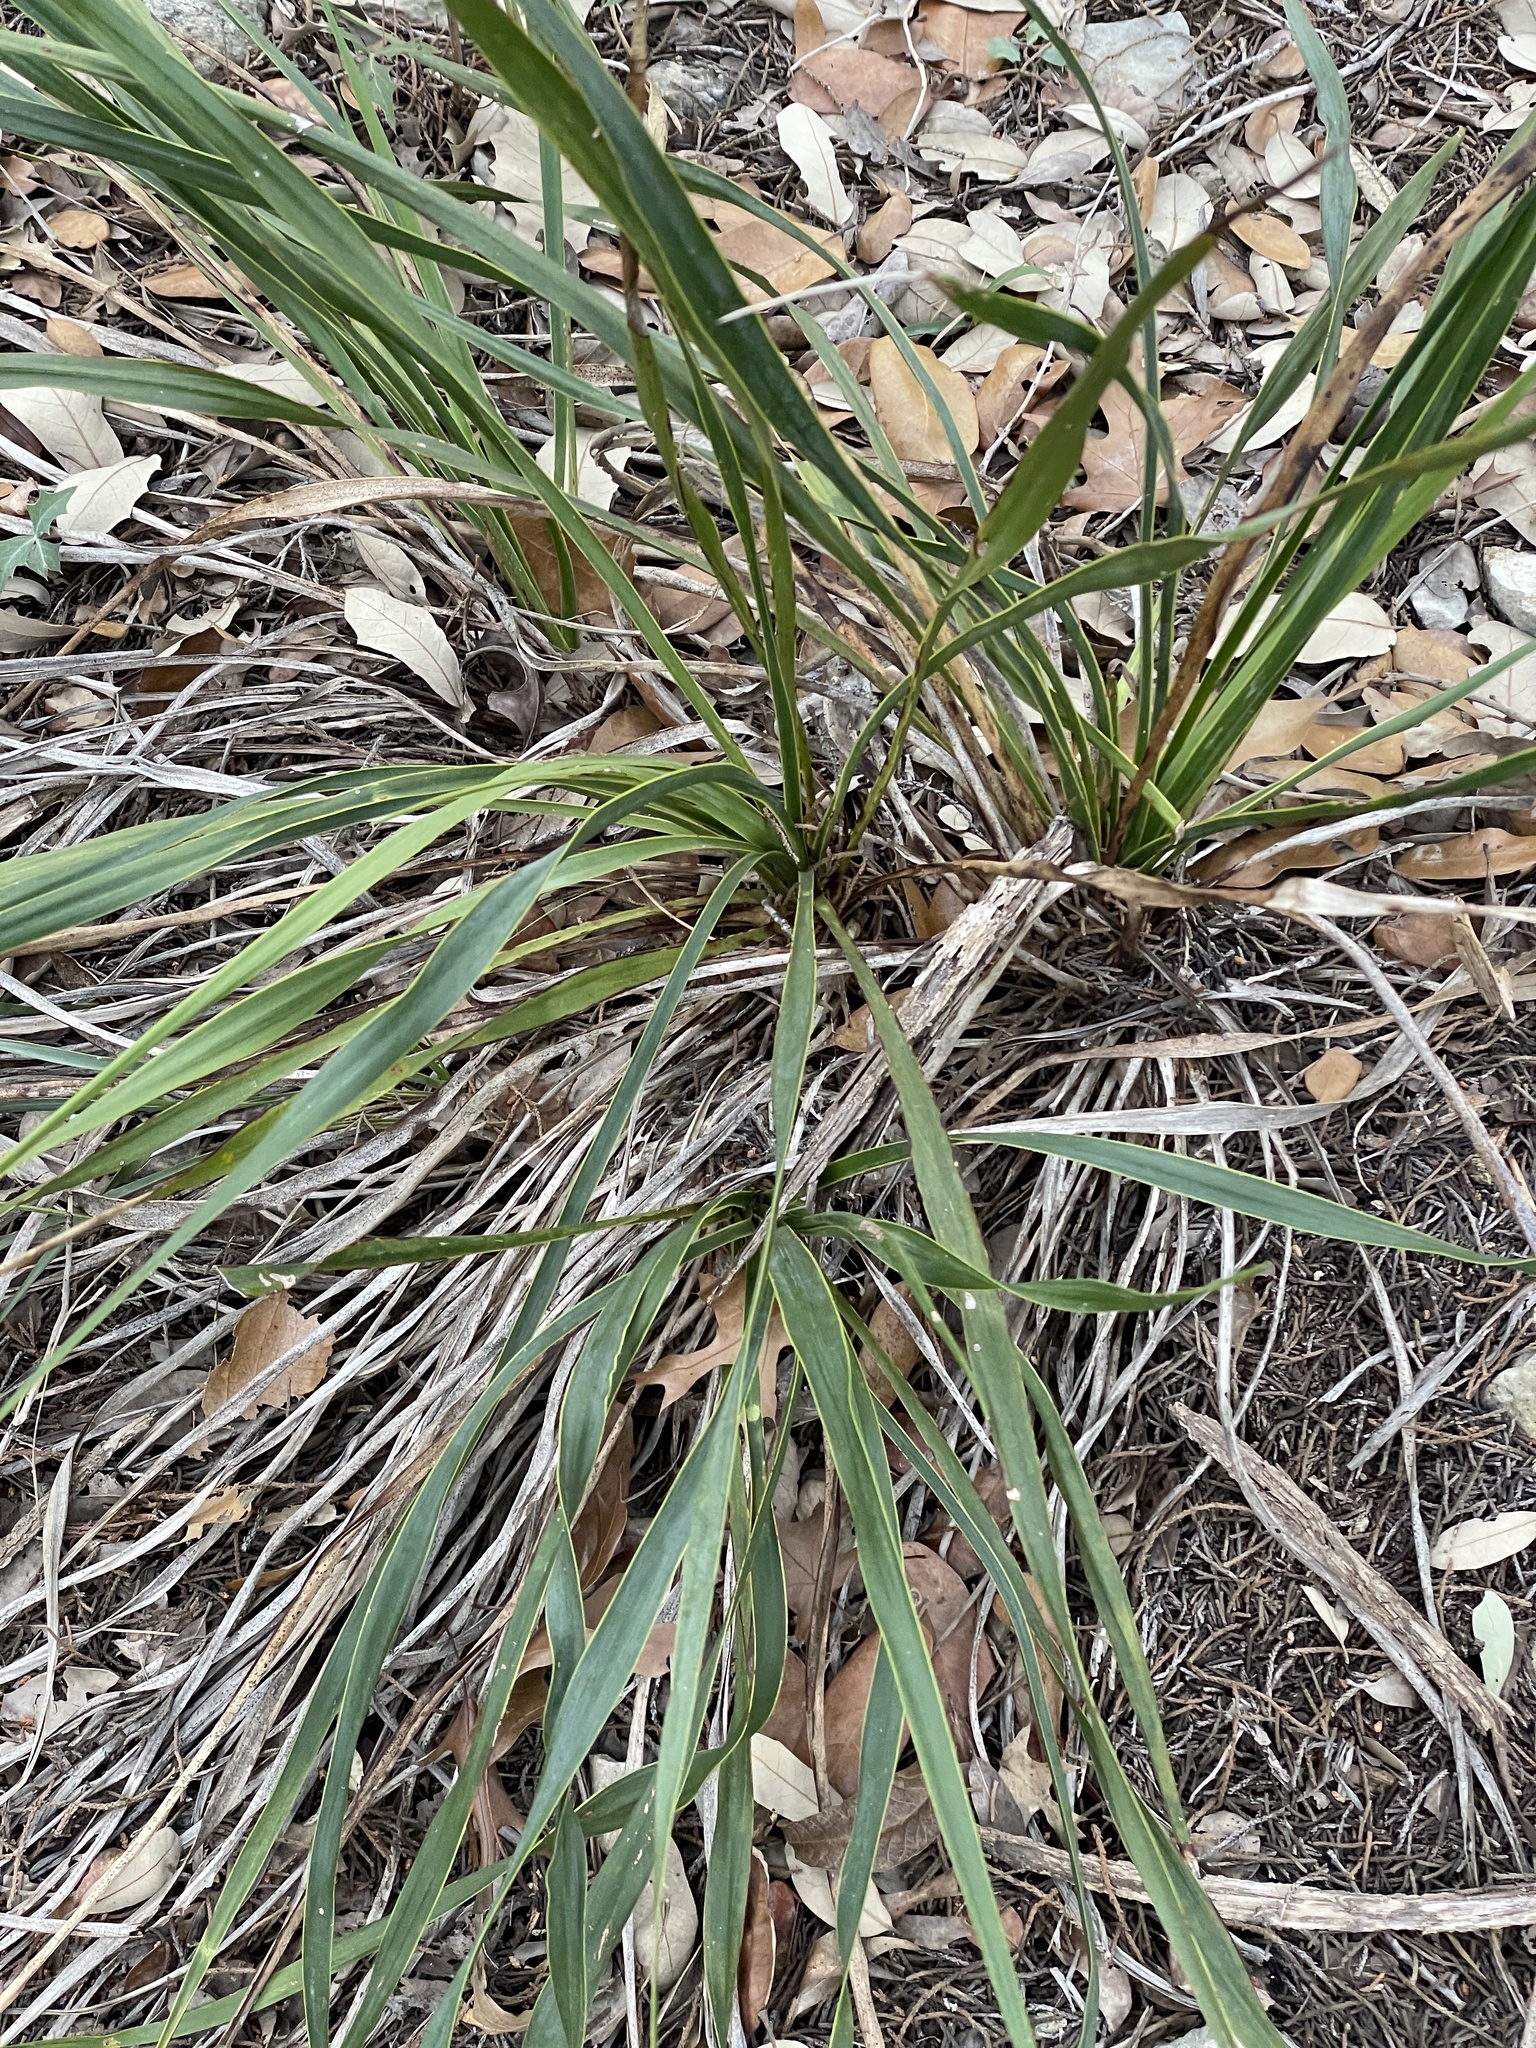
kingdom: Plantae
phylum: Tracheophyta
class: Liliopsida
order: Asparagales
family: Asparagaceae
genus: Yucca
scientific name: Yucca rupicola
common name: Twisted-leaf spanish-dagger
